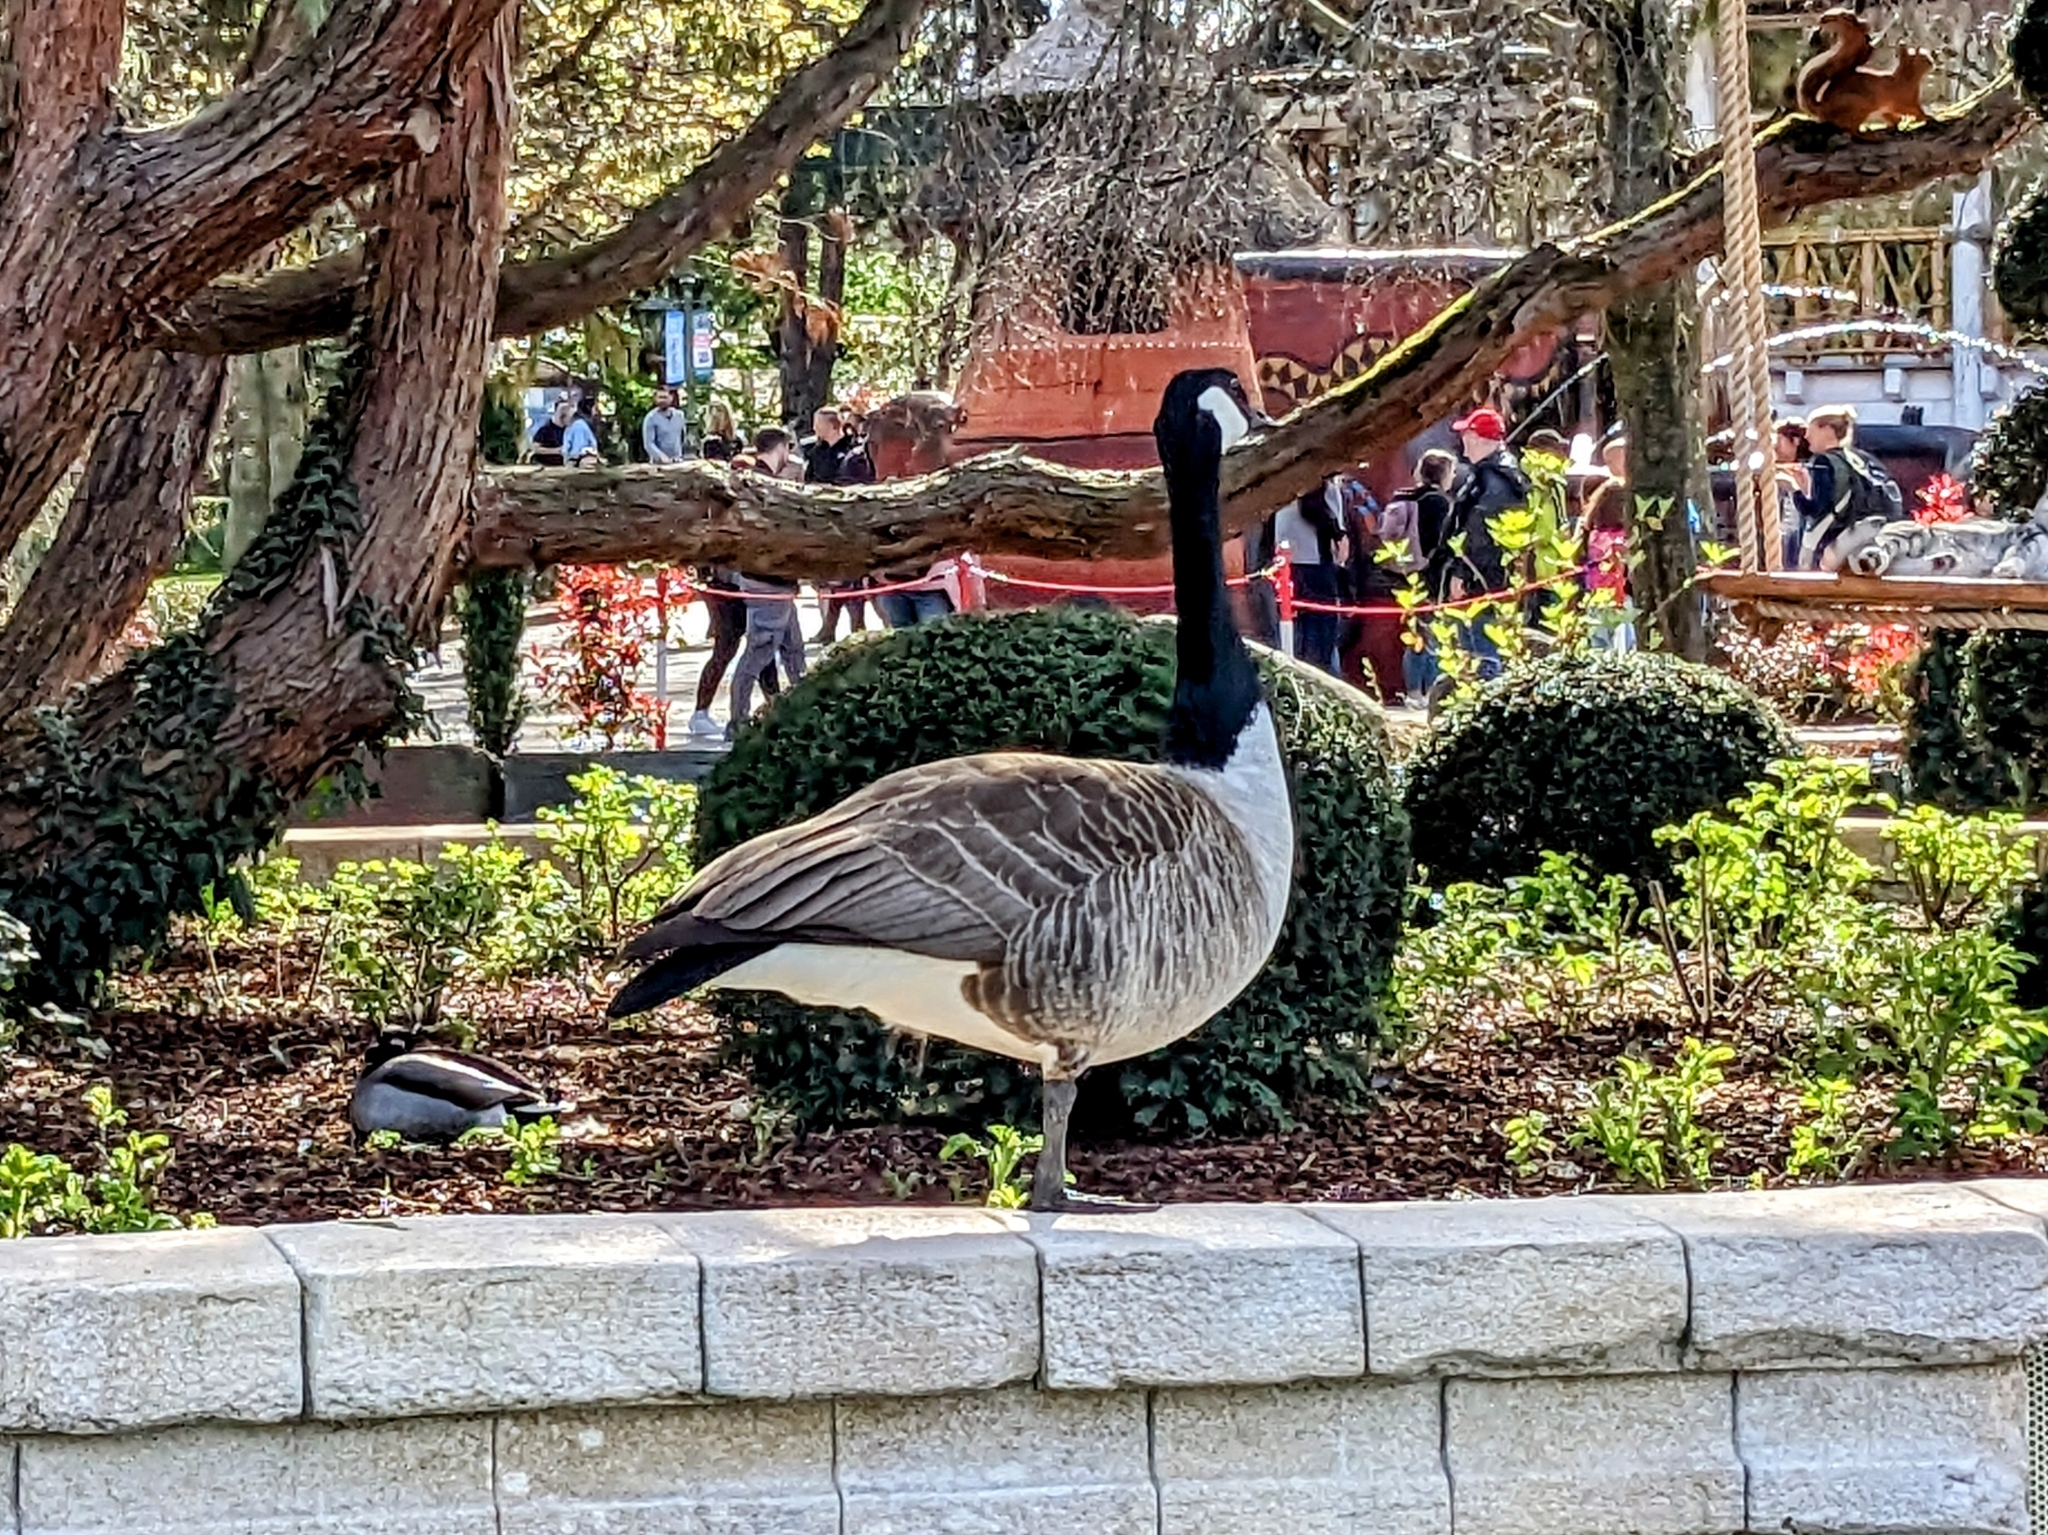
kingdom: Animalia
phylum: Chordata
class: Aves
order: Anseriformes
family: Anatidae
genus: Branta
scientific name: Branta canadensis
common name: Canada goose
